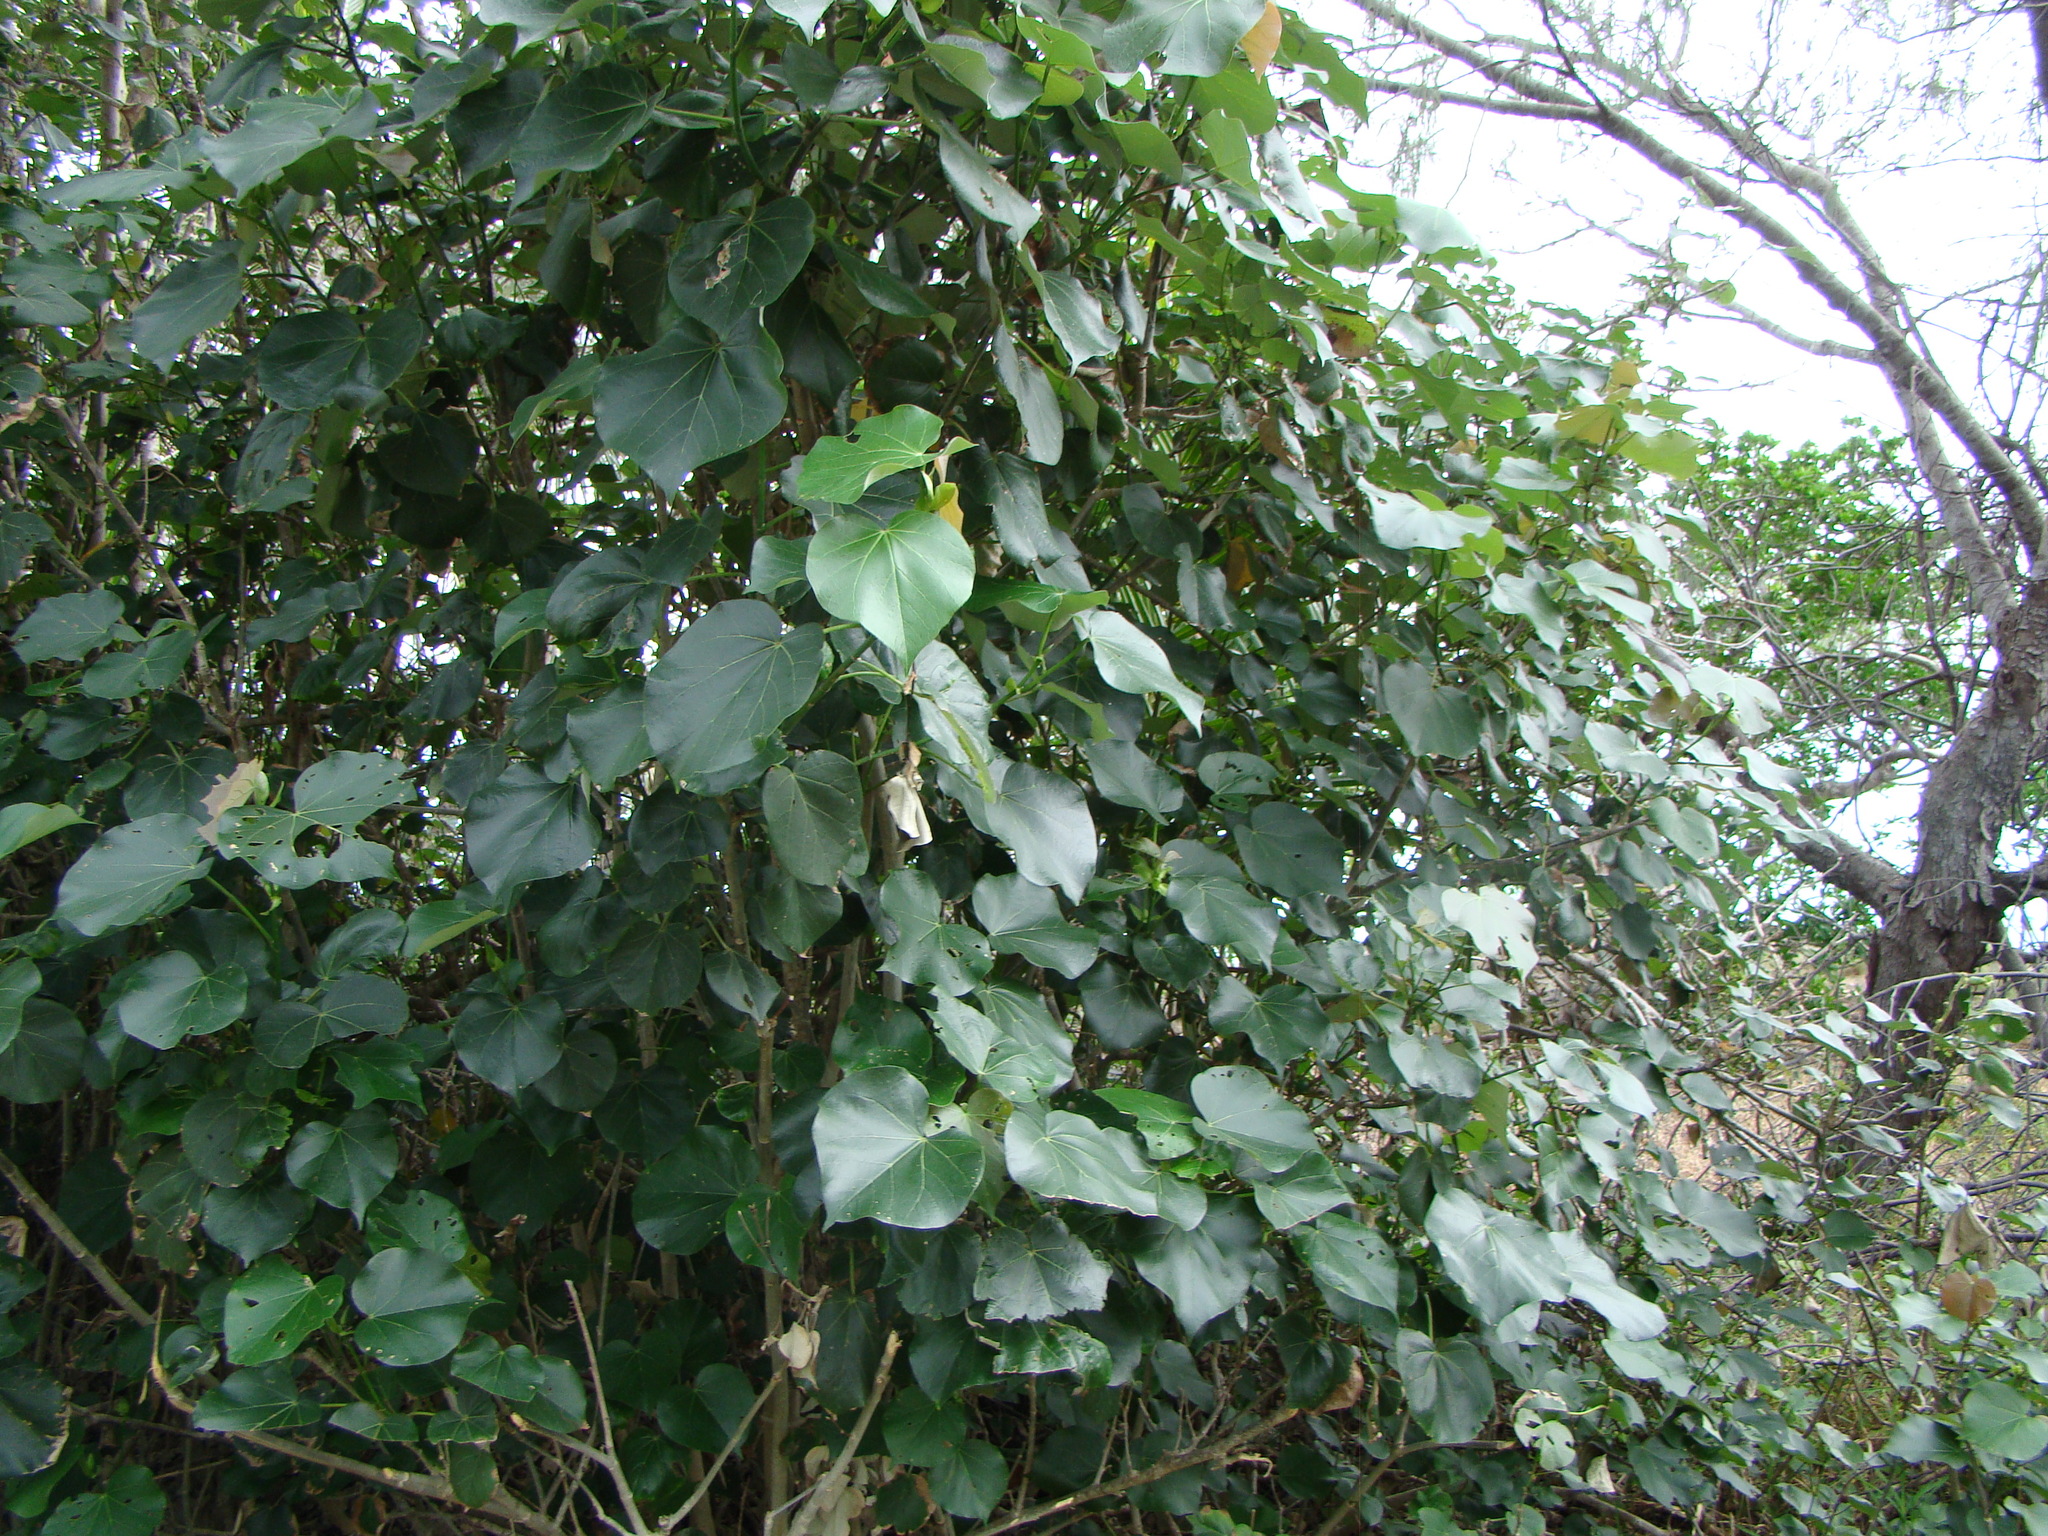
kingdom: Plantae
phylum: Tracheophyta
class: Magnoliopsida
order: Malvales
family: Malvaceae
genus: Talipariti
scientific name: Talipariti tiliaceum
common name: Sea hibiscus
